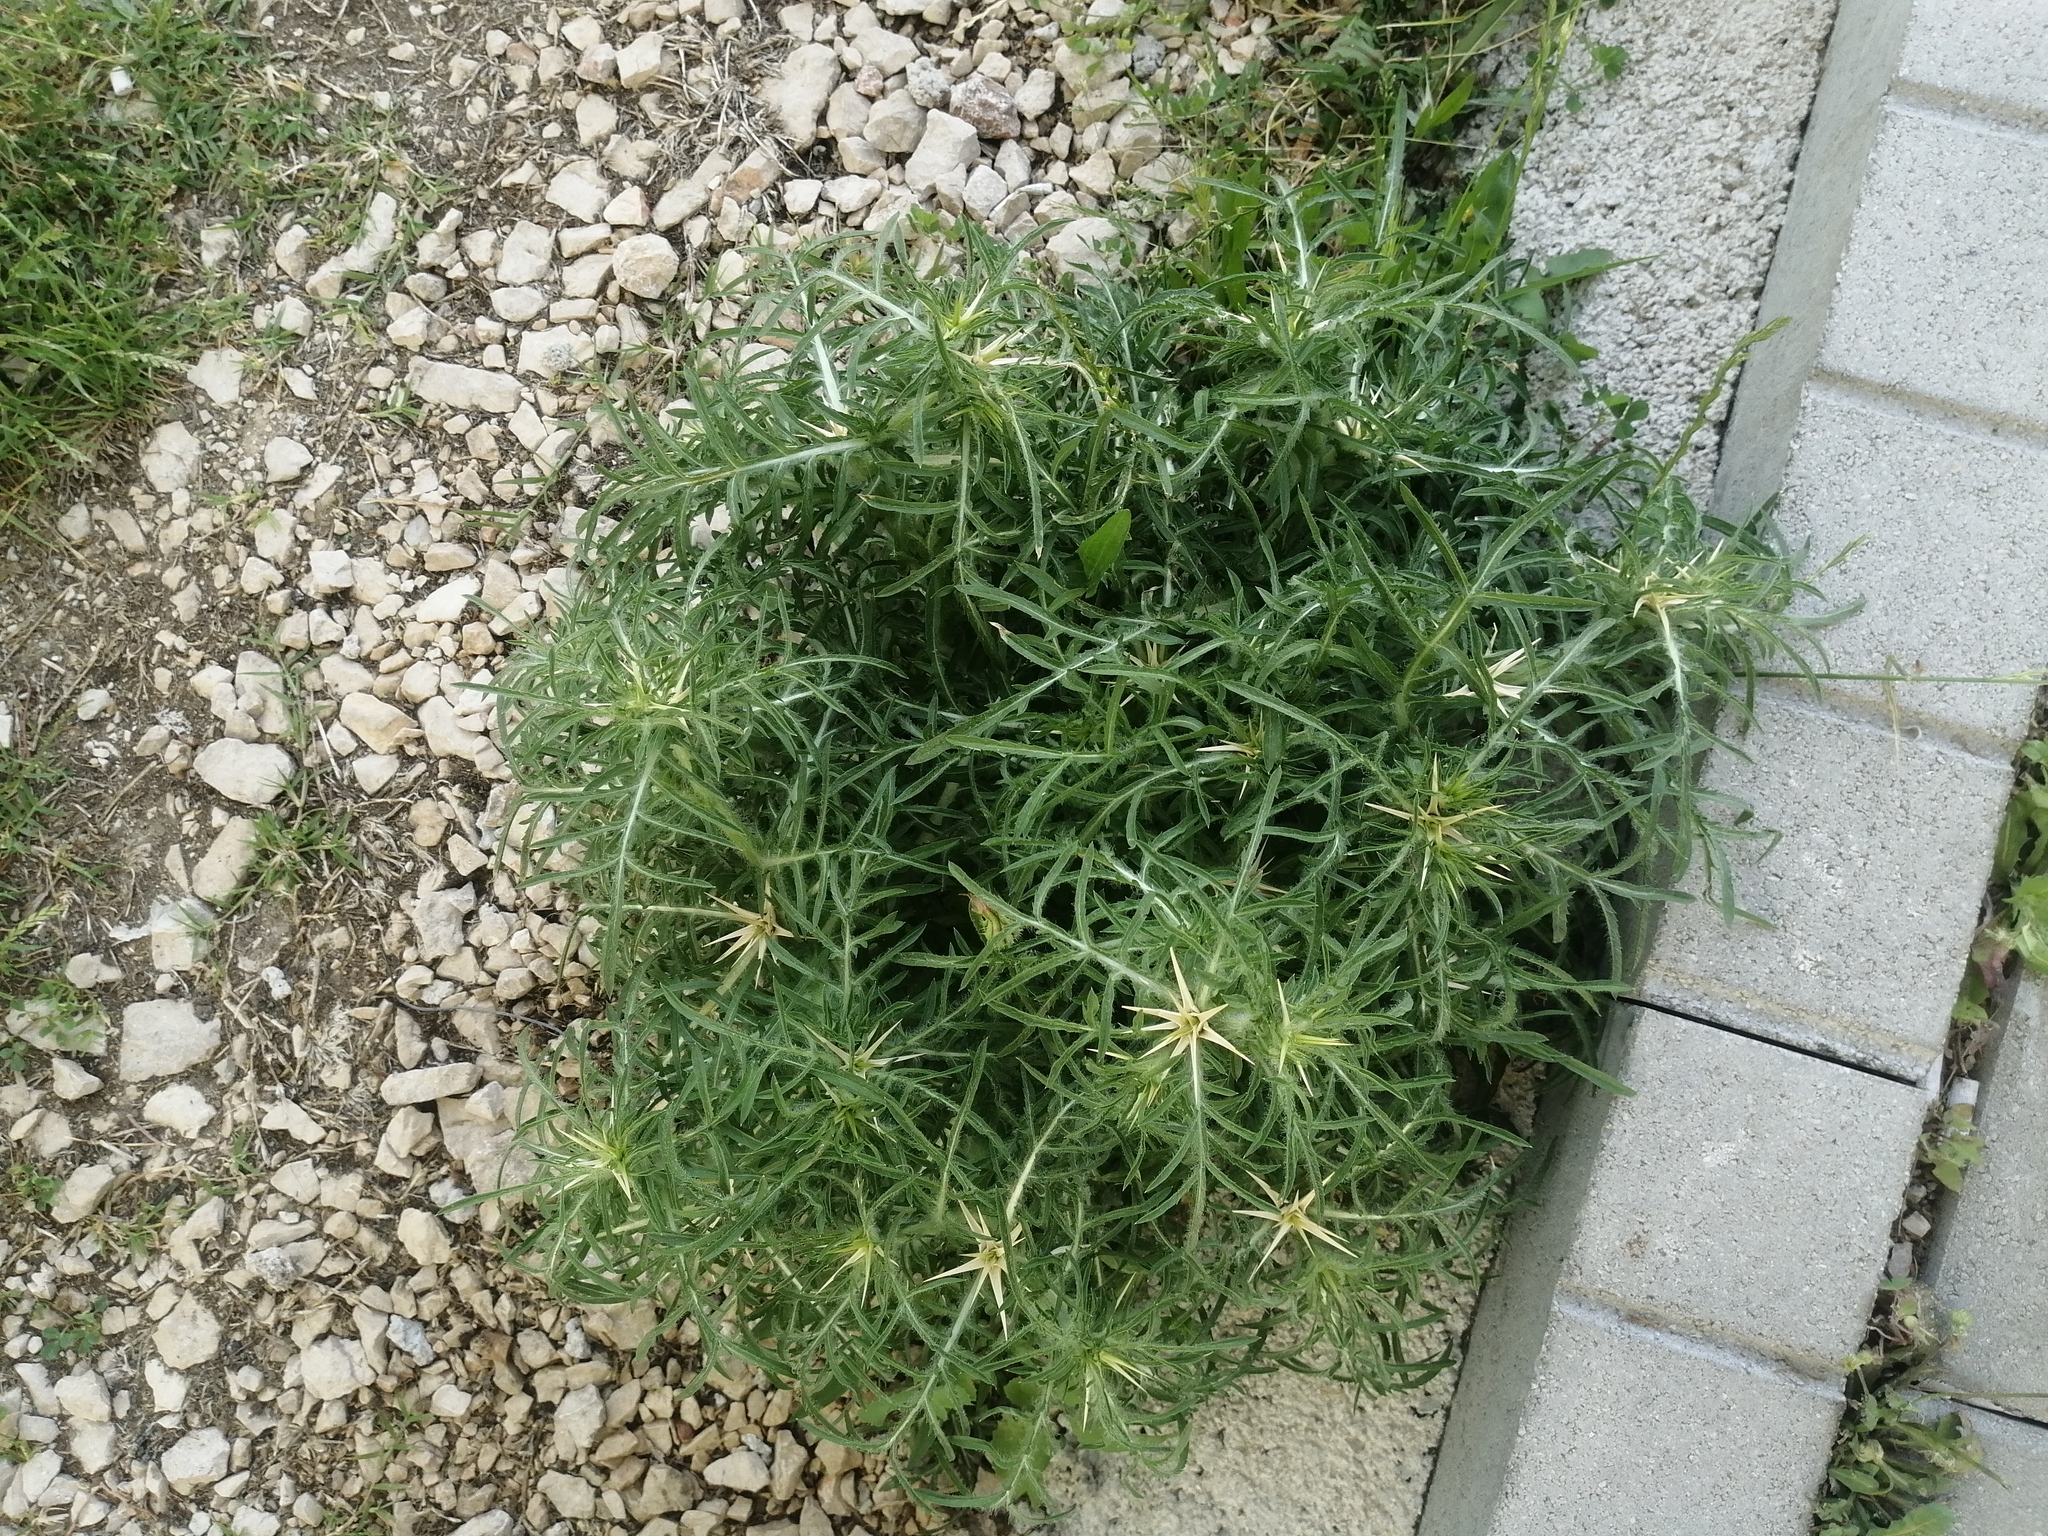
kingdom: Plantae
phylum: Tracheophyta
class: Magnoliopsida
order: Asterales
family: Asteraceae
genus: Centaurea
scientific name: Centaurea calcitrapa
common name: Red star-thistle
